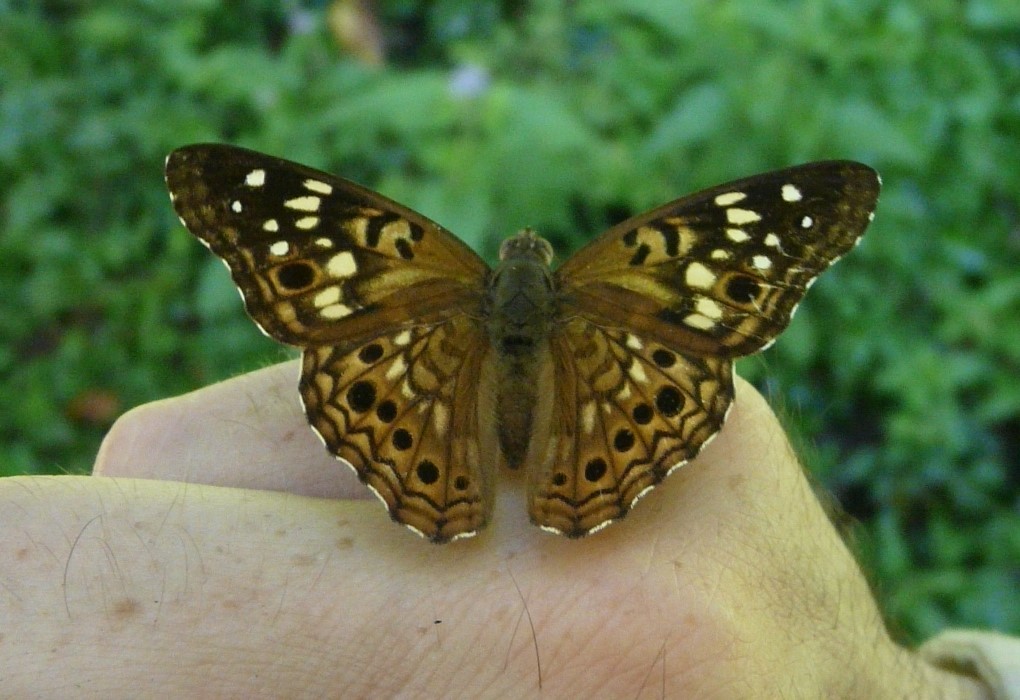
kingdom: Animalia
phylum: Arthropoda
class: Insecta
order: Lepidoptera
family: Nymphalidae
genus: Asterocampa
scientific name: Asterocampa celtis
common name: Hackberry emperor
